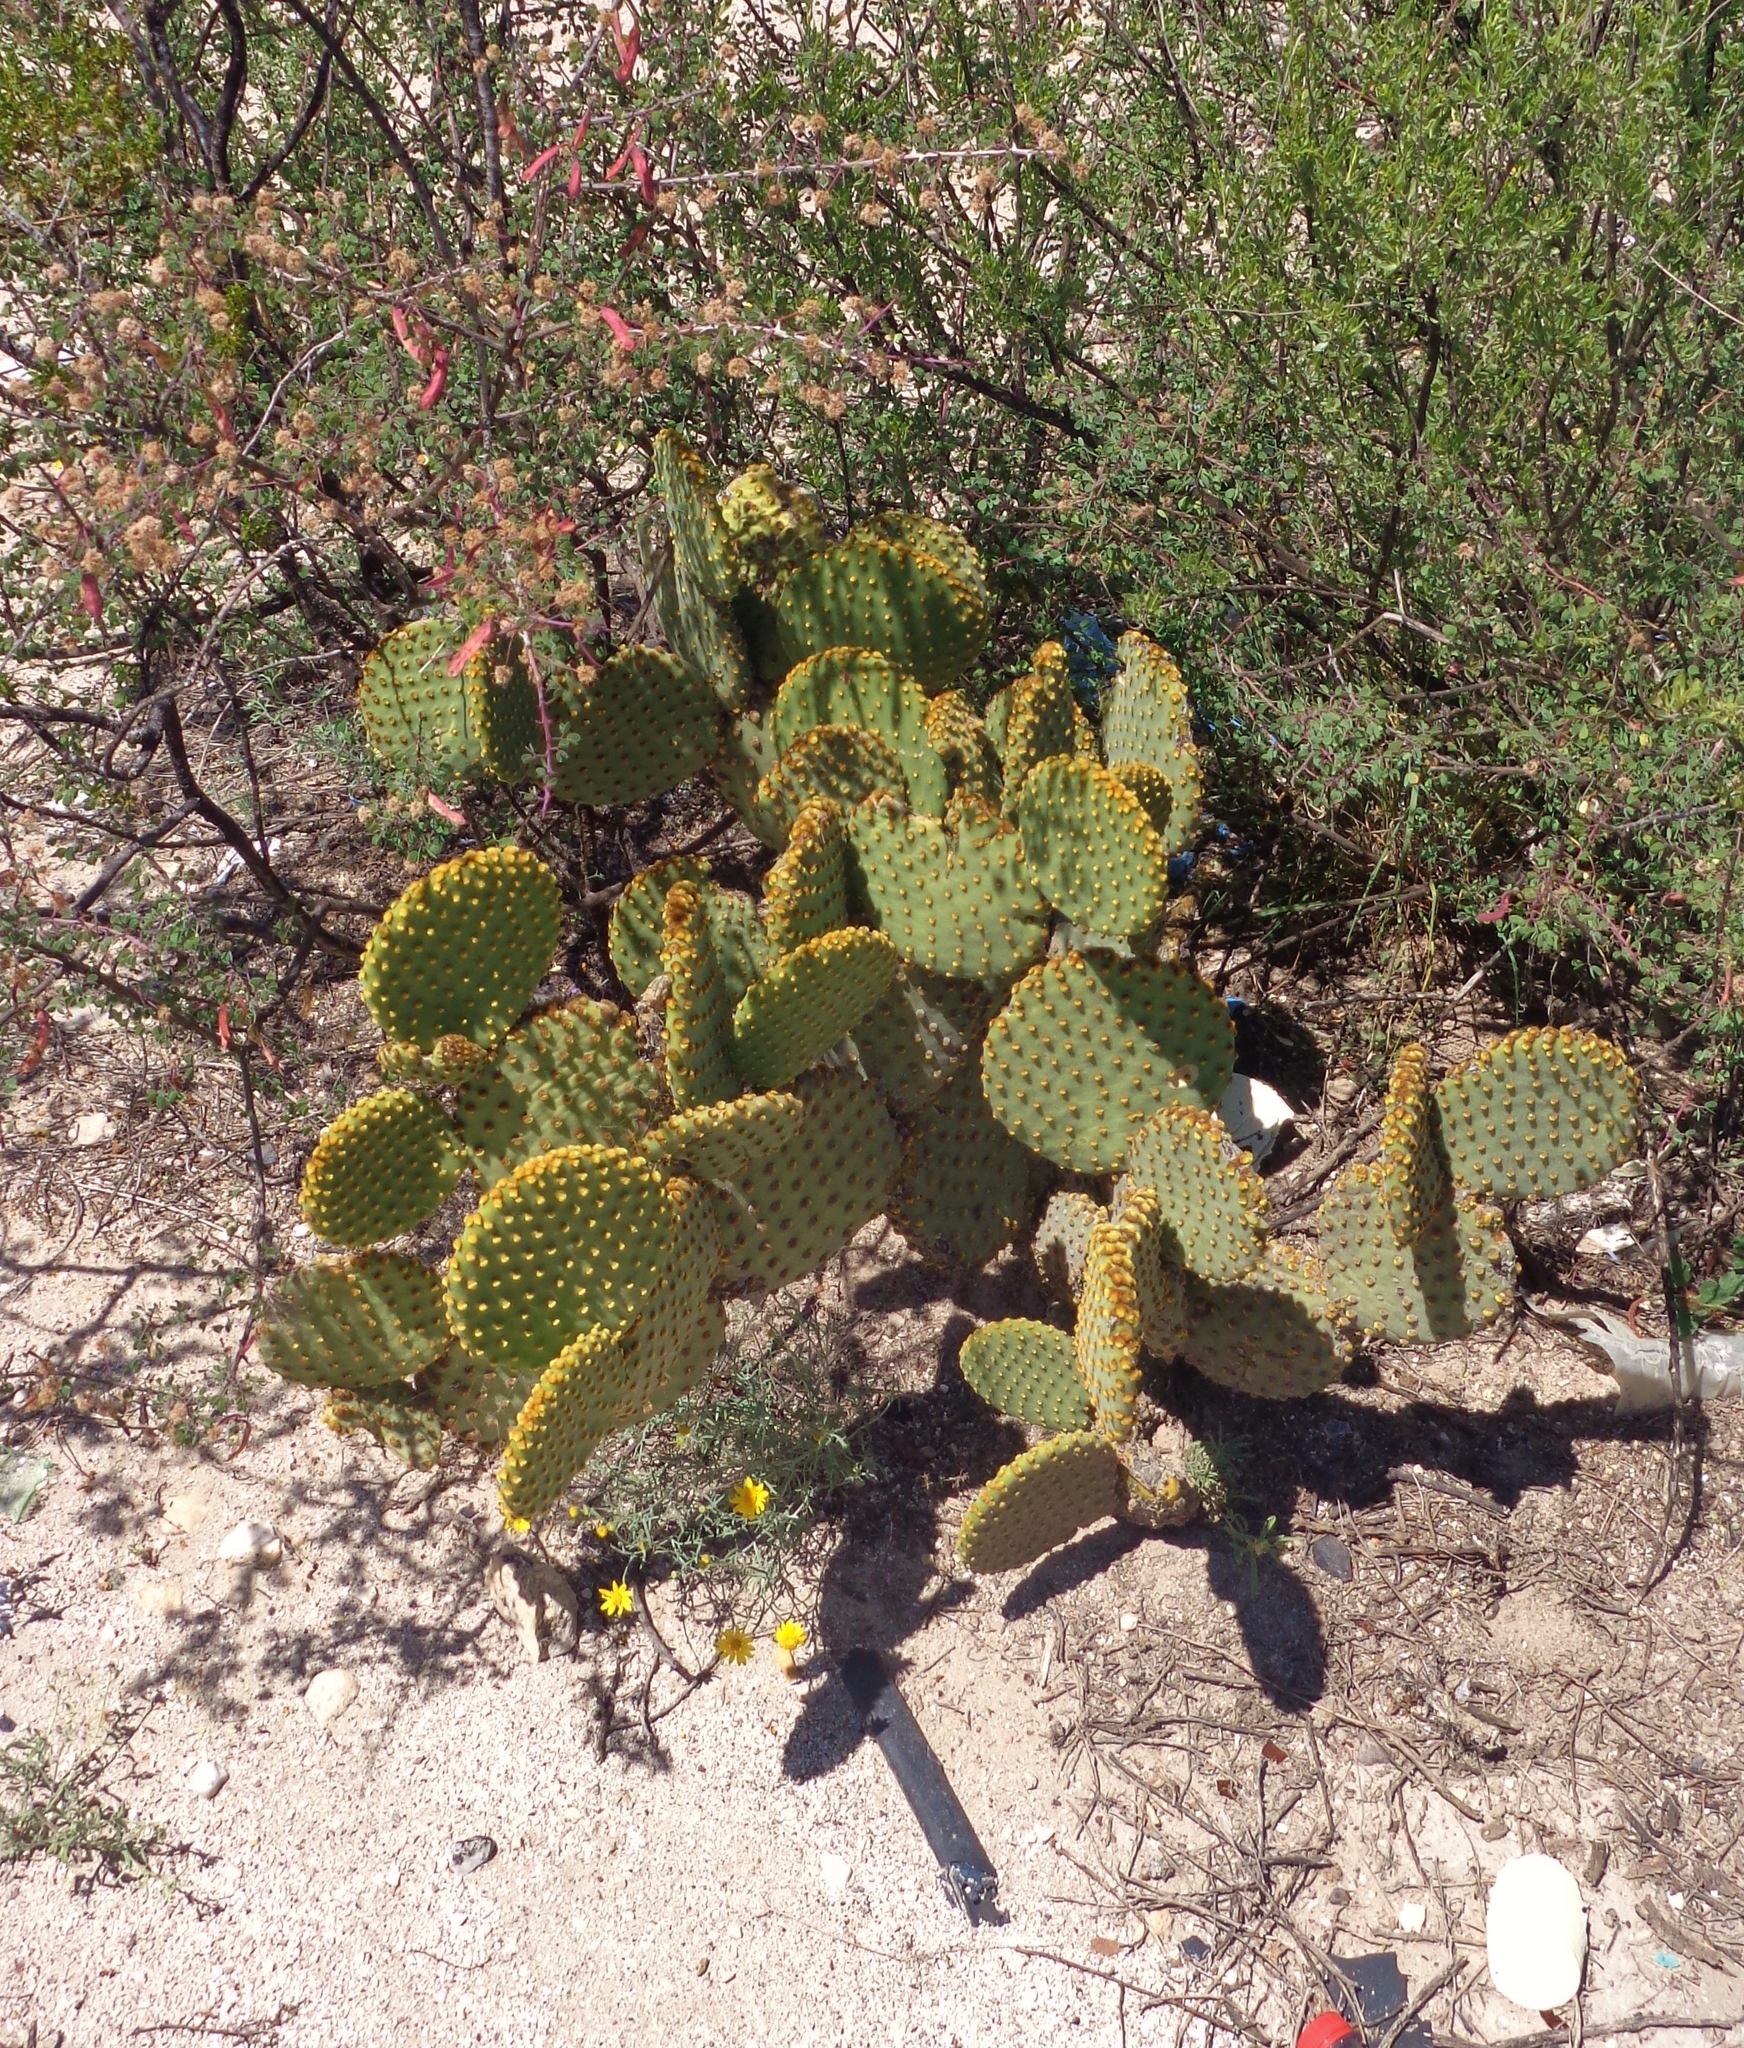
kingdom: Plantae
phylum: Tracheophyta
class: Magnoliopsida
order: Caryophyllales
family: Cactaceae
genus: Opuntia
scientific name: Opuntia microdasys
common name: Angel's-wings
